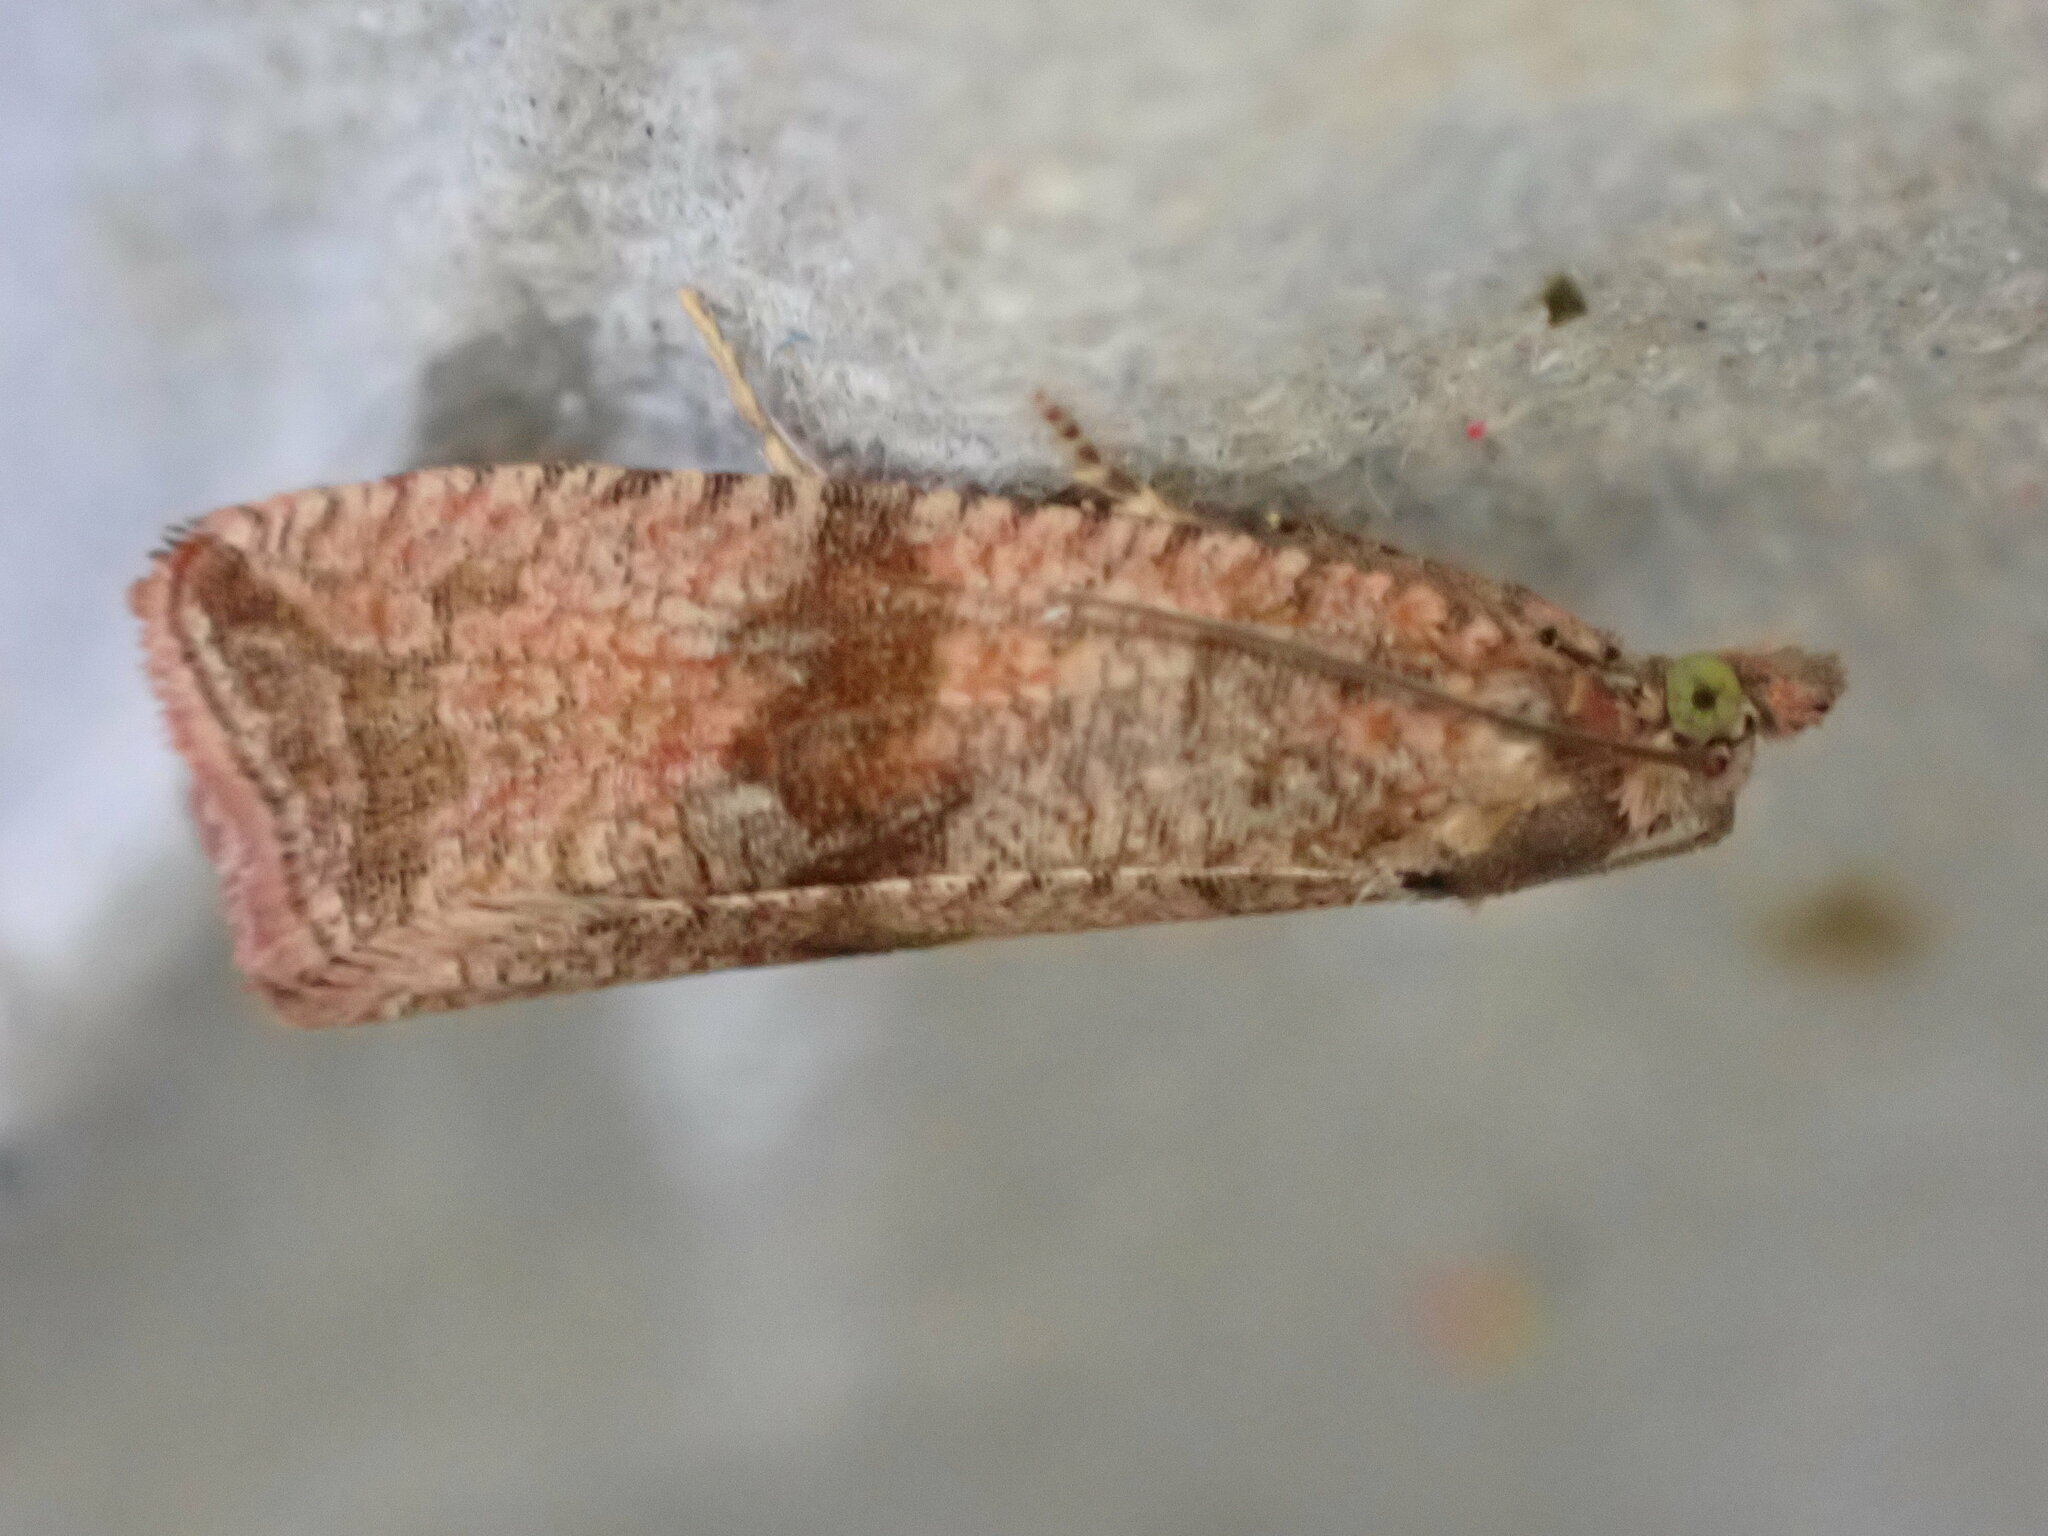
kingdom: Animalia
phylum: Arthropoda
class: Insecta
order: Lepidoptera
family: Tortricidae
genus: Celypha
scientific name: Celypha striana
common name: Barred marble
